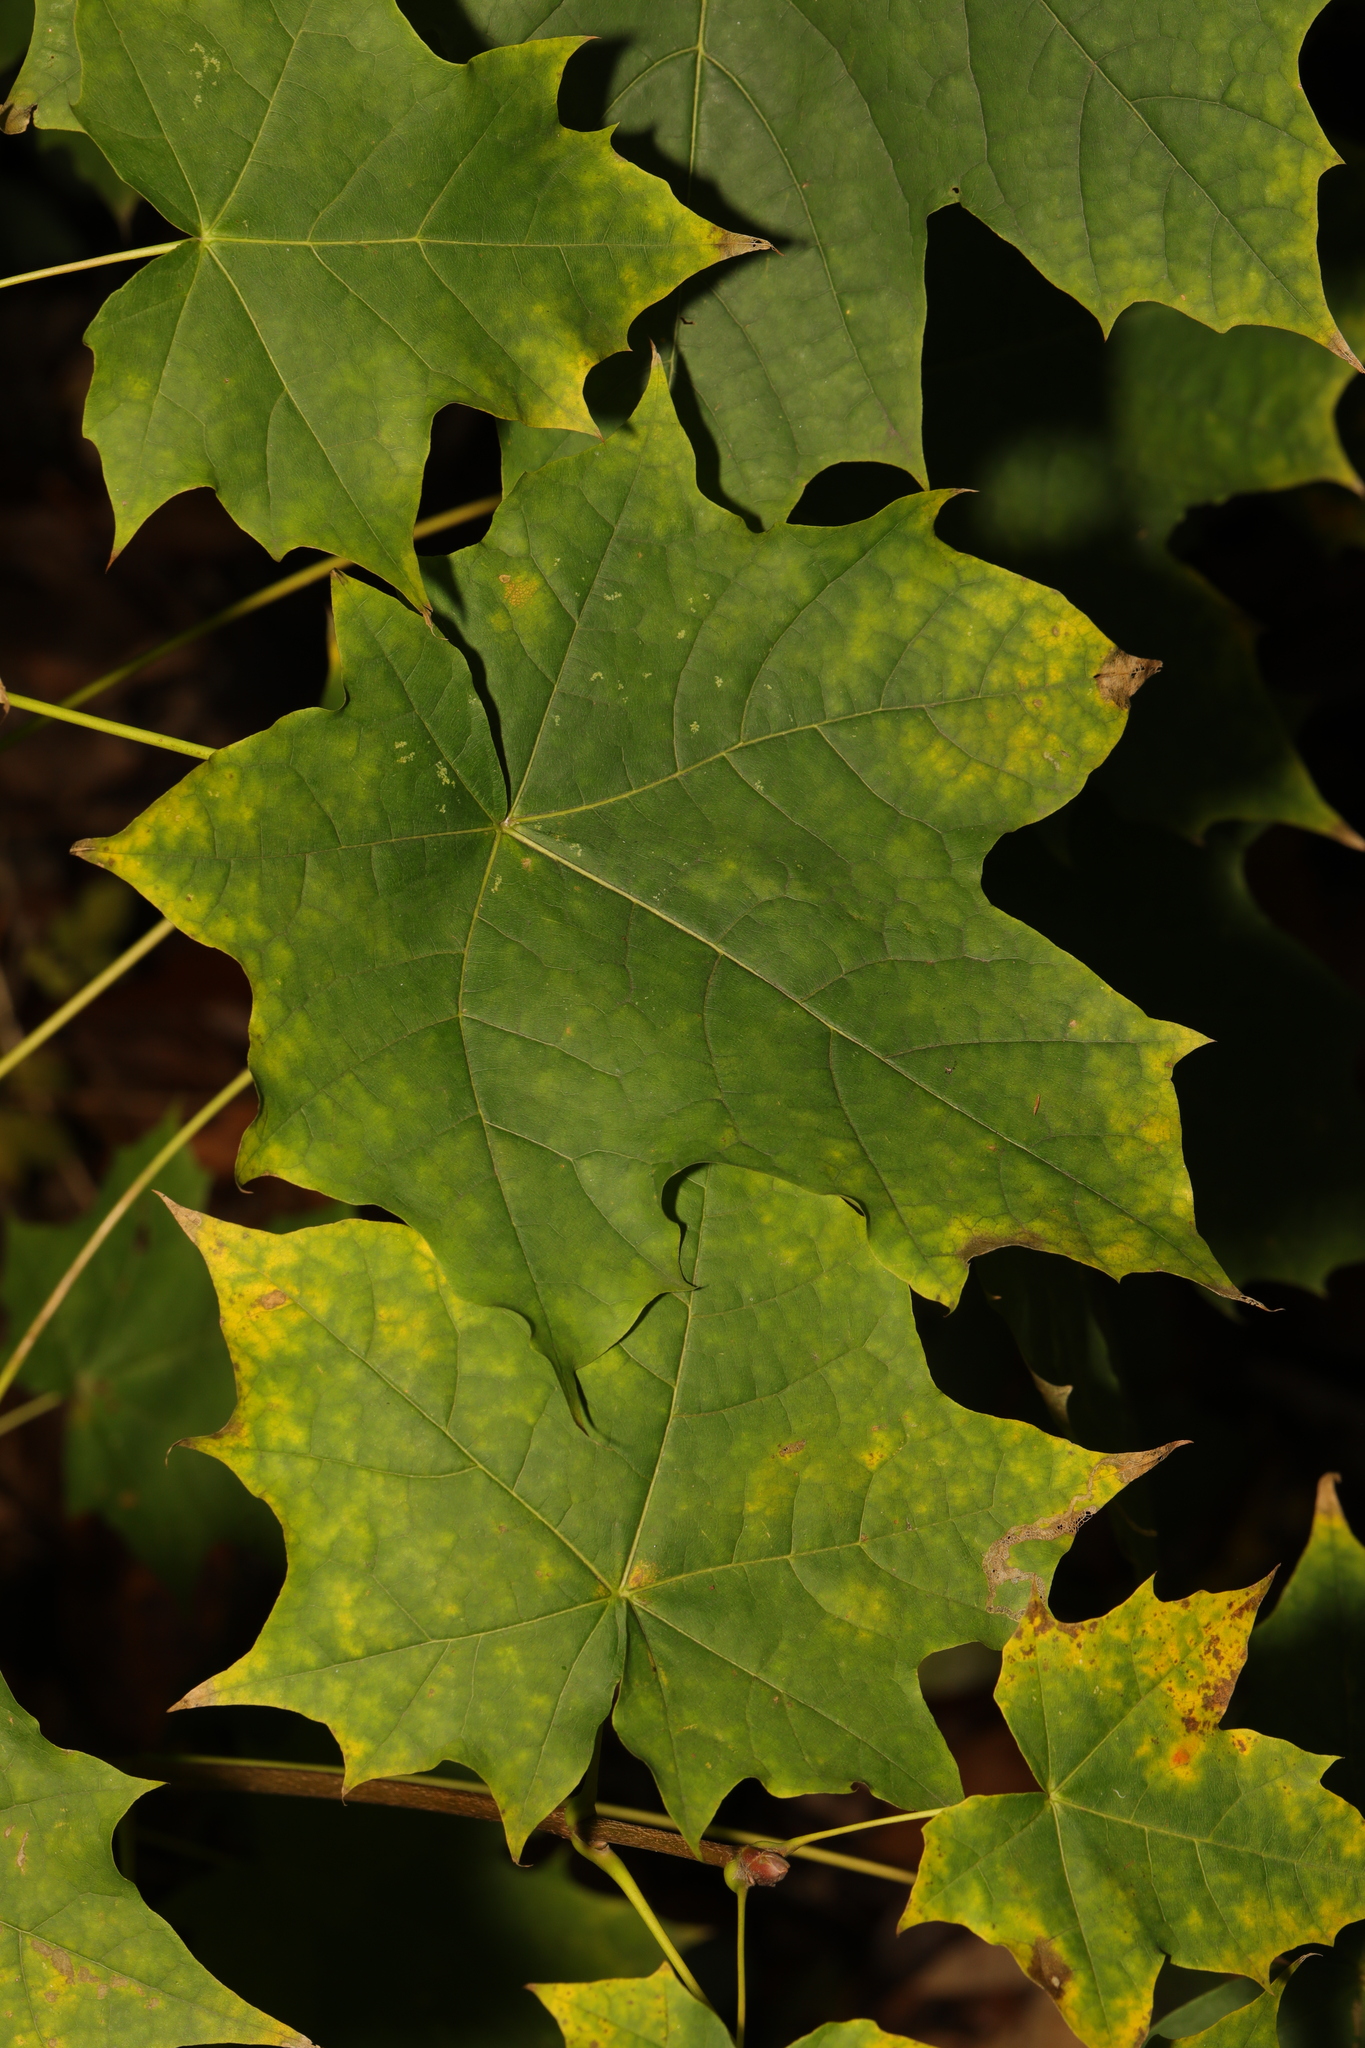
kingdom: Plantae
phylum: Tracheophyta
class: Magnoliopsida
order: Sapindales
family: Sapindaceae
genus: Acer
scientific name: Acer platanoides
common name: Norway maple
